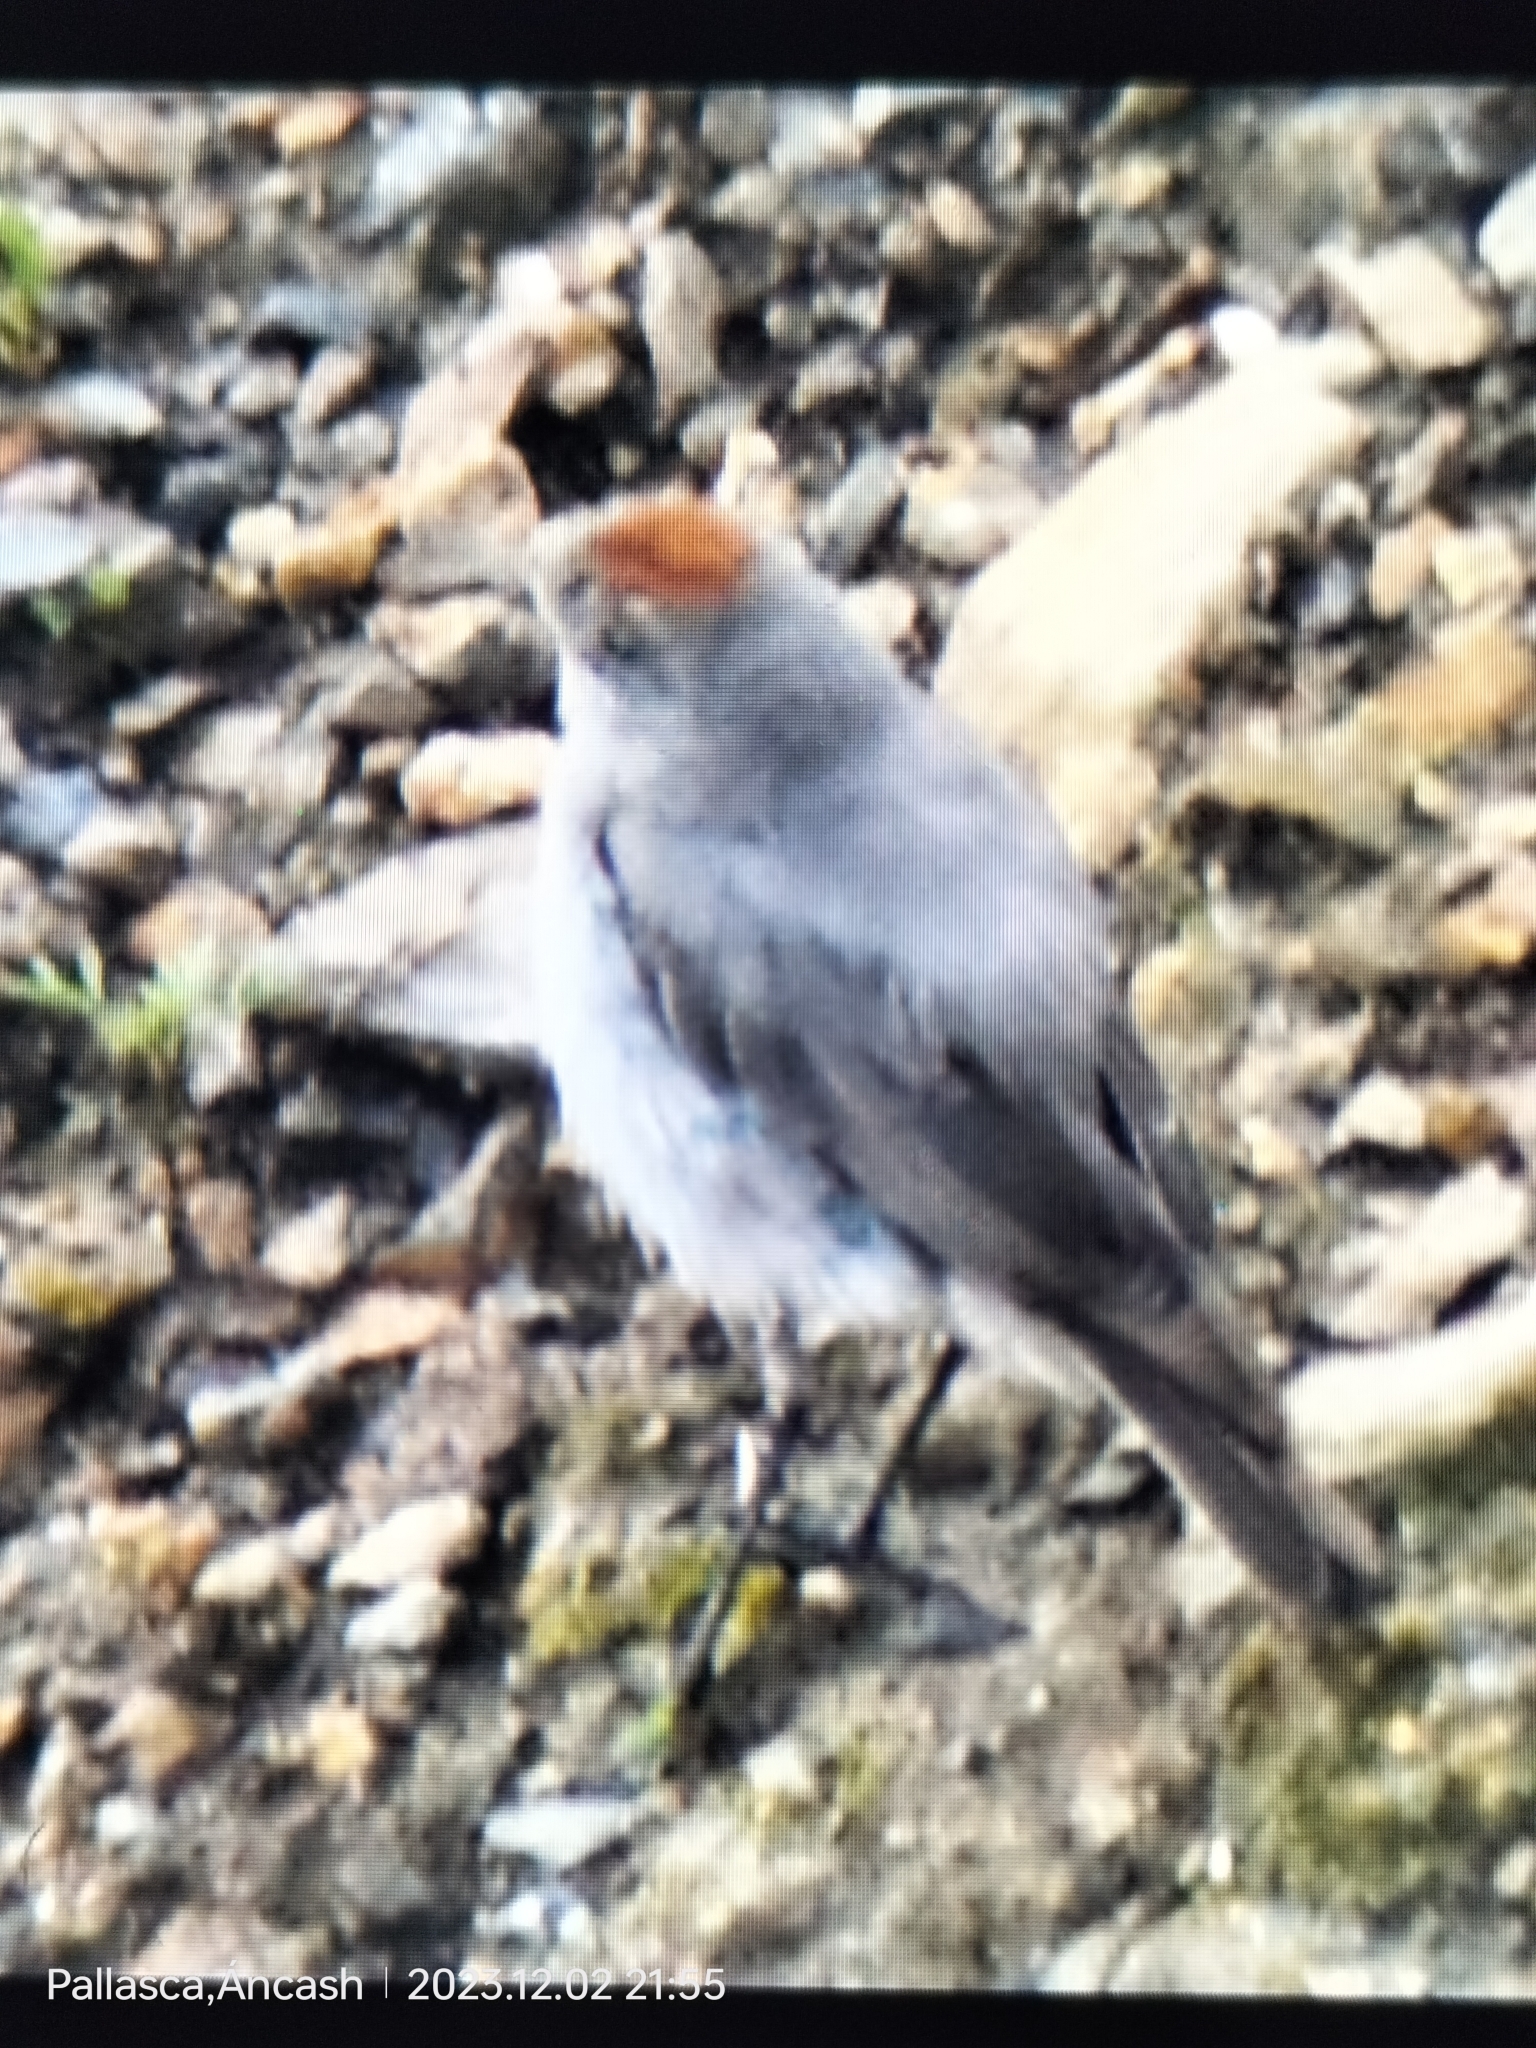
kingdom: Animalia
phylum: Chordata
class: Aves
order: Passeriformes
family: Tyrannidae
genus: Muscisaxicola
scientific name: Muscisaxicola rufivertex
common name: Rufous-naped ground tyrant
